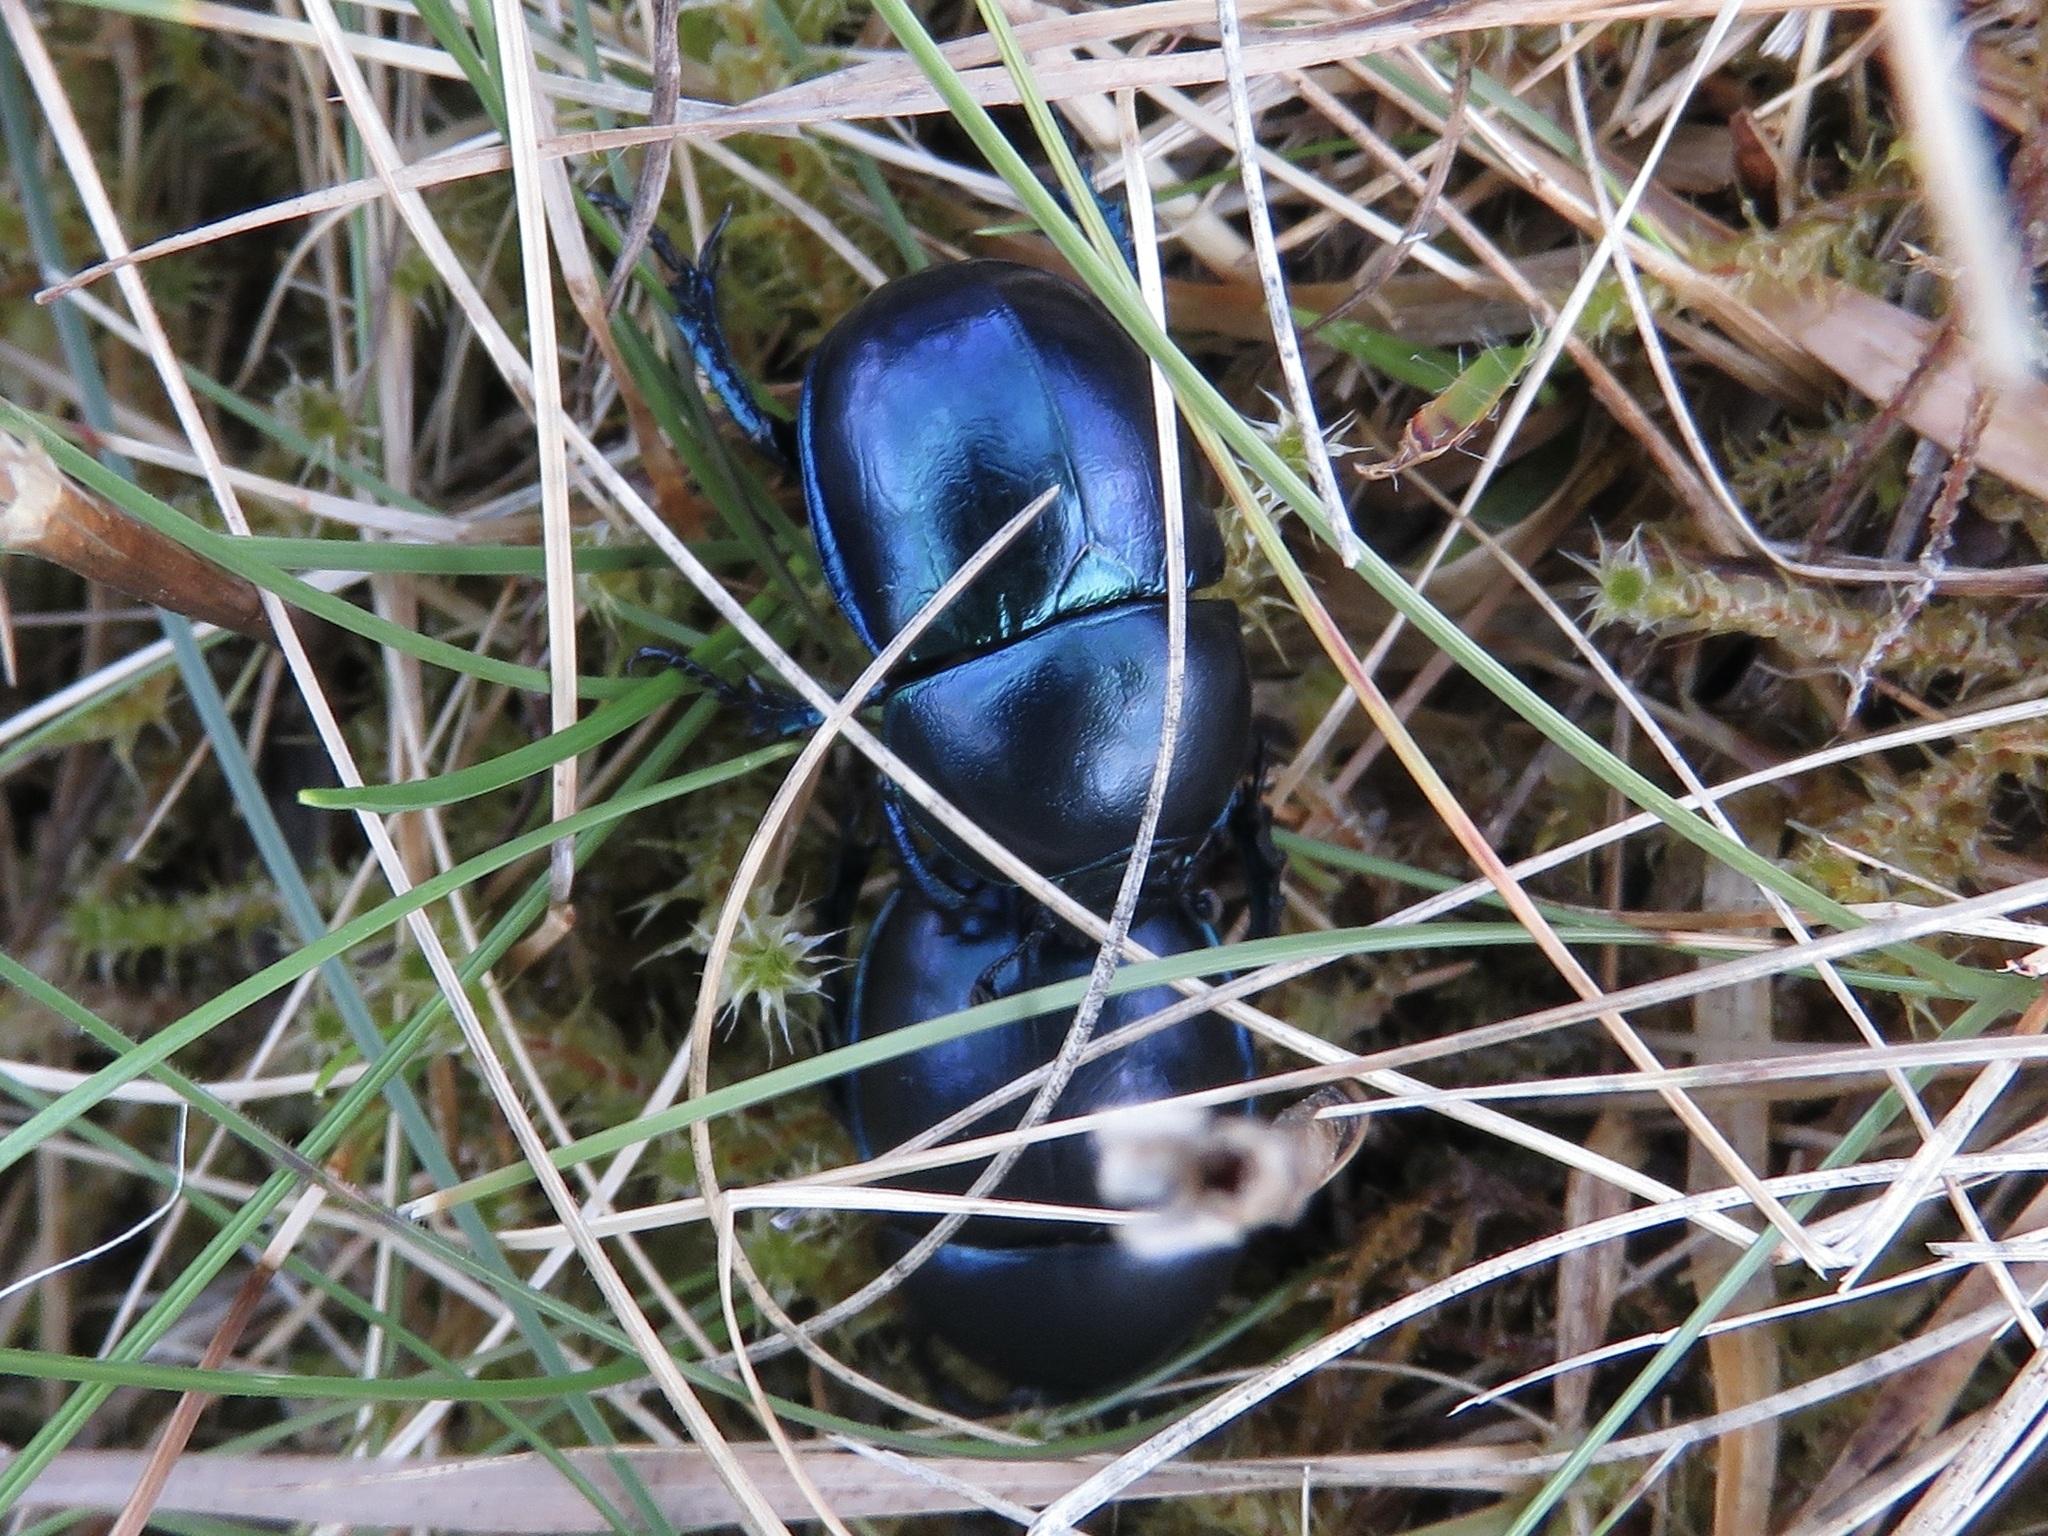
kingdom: Animalia
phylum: Arthropoda
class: Insecta
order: Coleoptera
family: Geotrupidae
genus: Trypocopris
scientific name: Trypocopris vernalis
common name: Spring dumbledor
